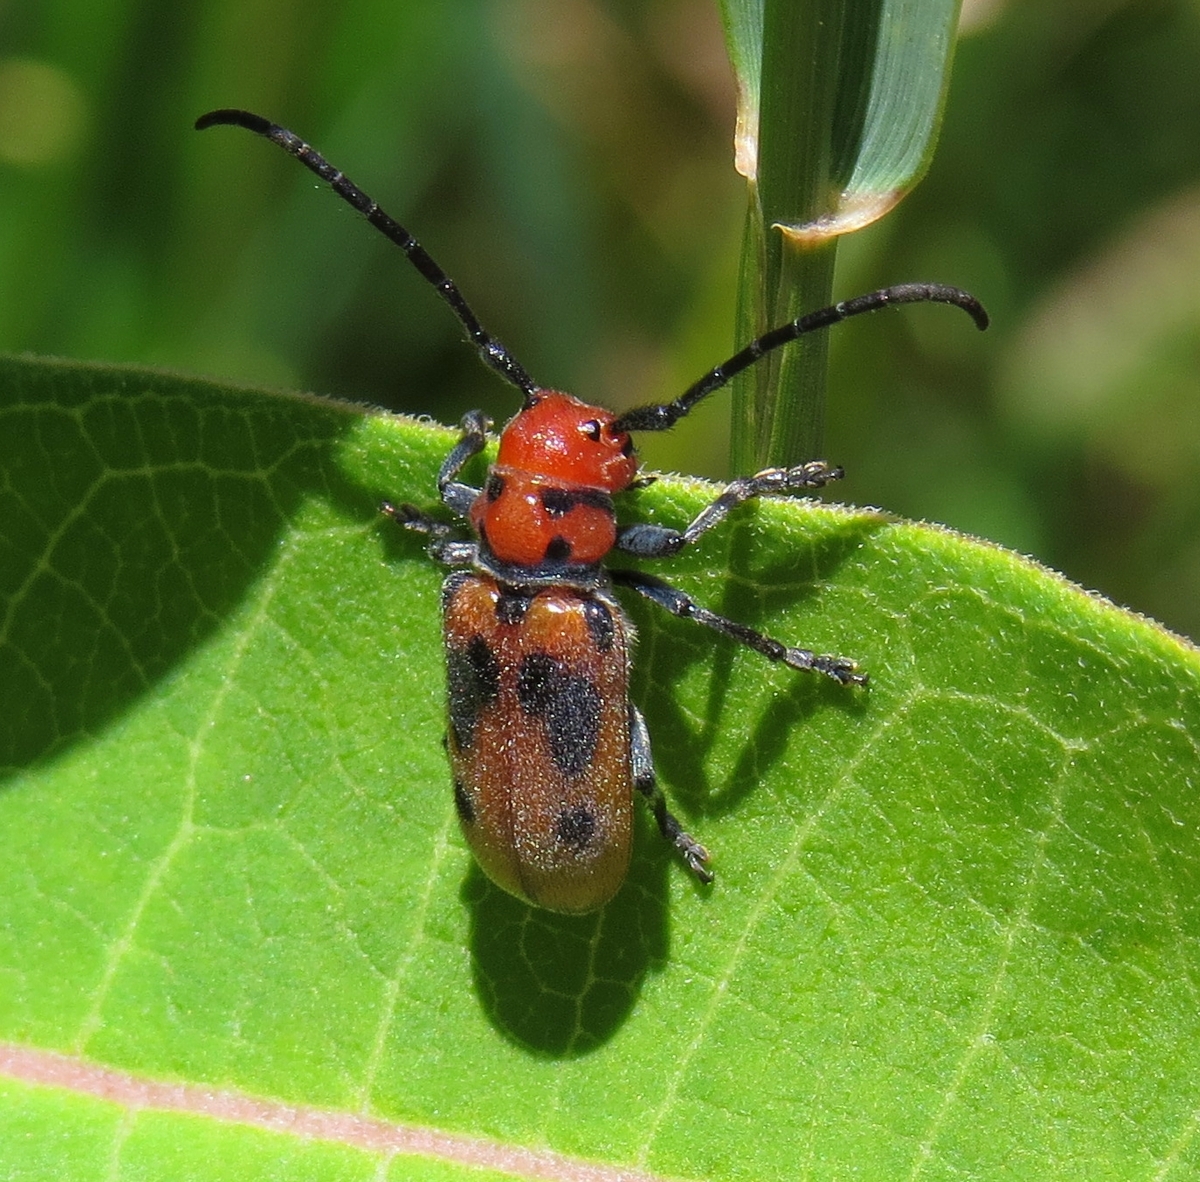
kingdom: Animalia
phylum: Arthropoda
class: Insecta
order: Coleoptera
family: Cerambycidae
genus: Tetraopes
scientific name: Tetraopes tetrophthalmus
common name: Red milkweed beetle
